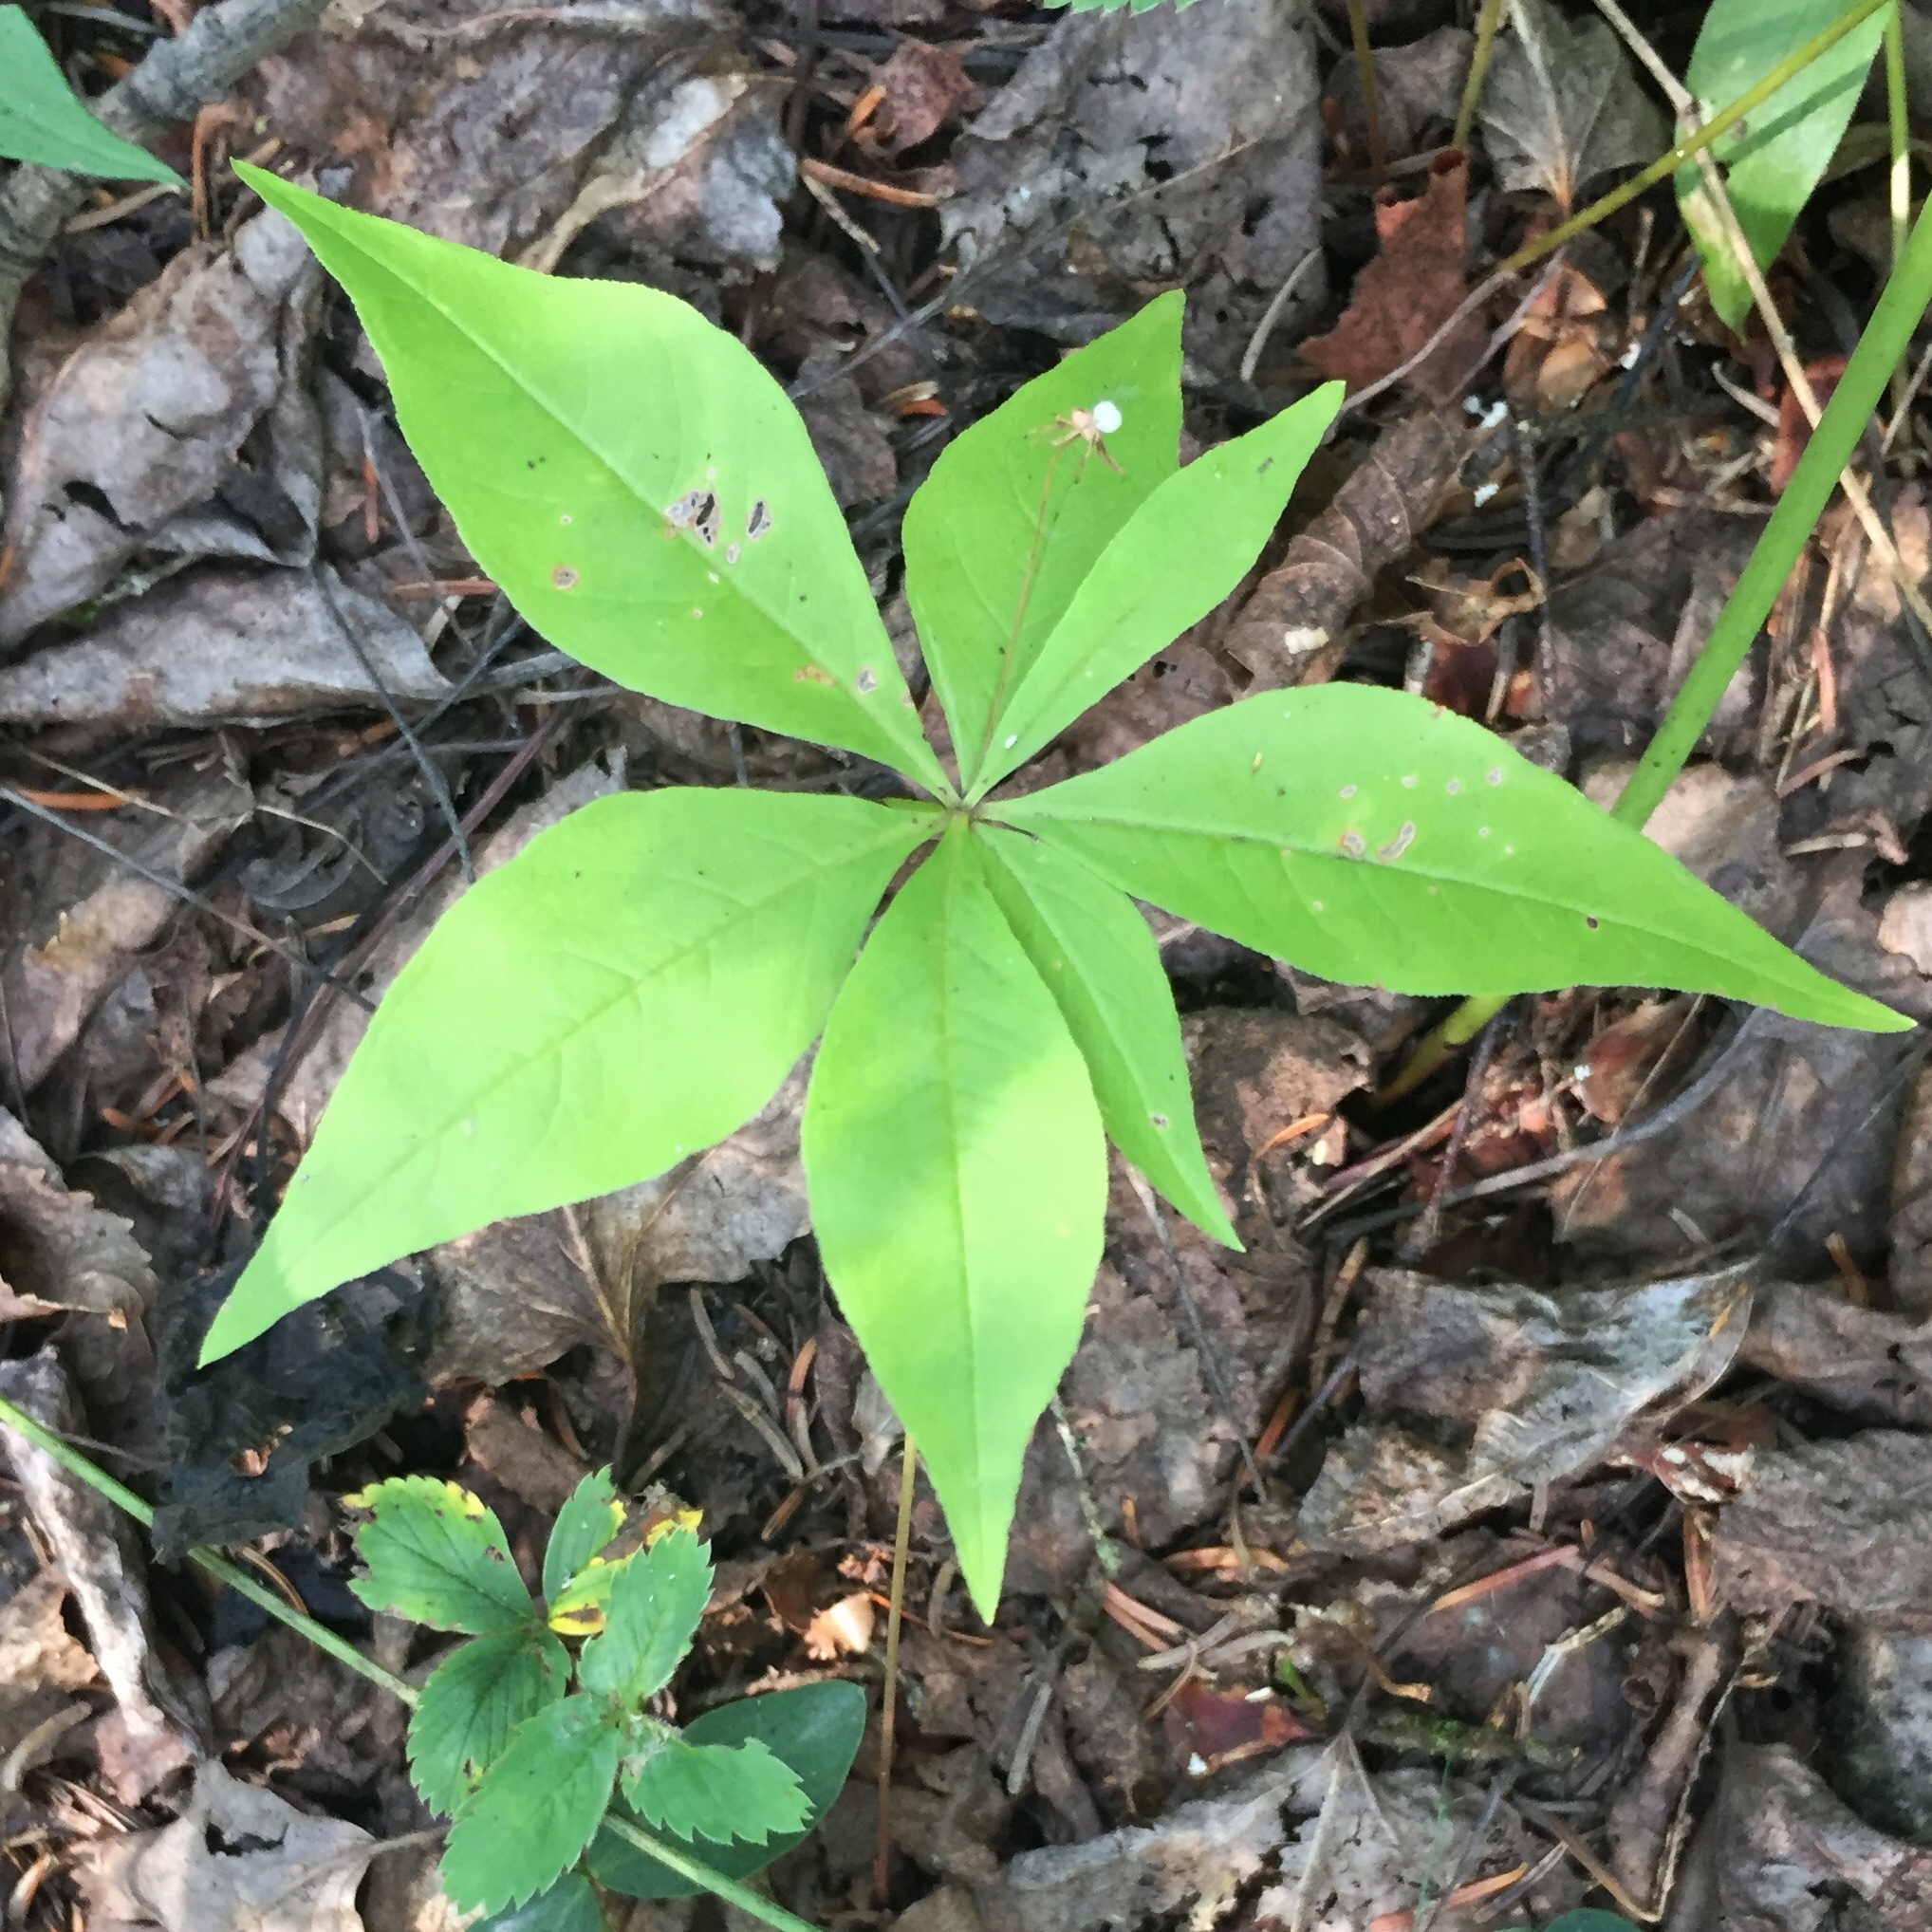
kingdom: Plantae
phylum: Tracheophyta
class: Magnoliopsida
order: Ericales
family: Primulaceae
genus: Lysimachia
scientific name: Lysimachia borealis
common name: American starflower
